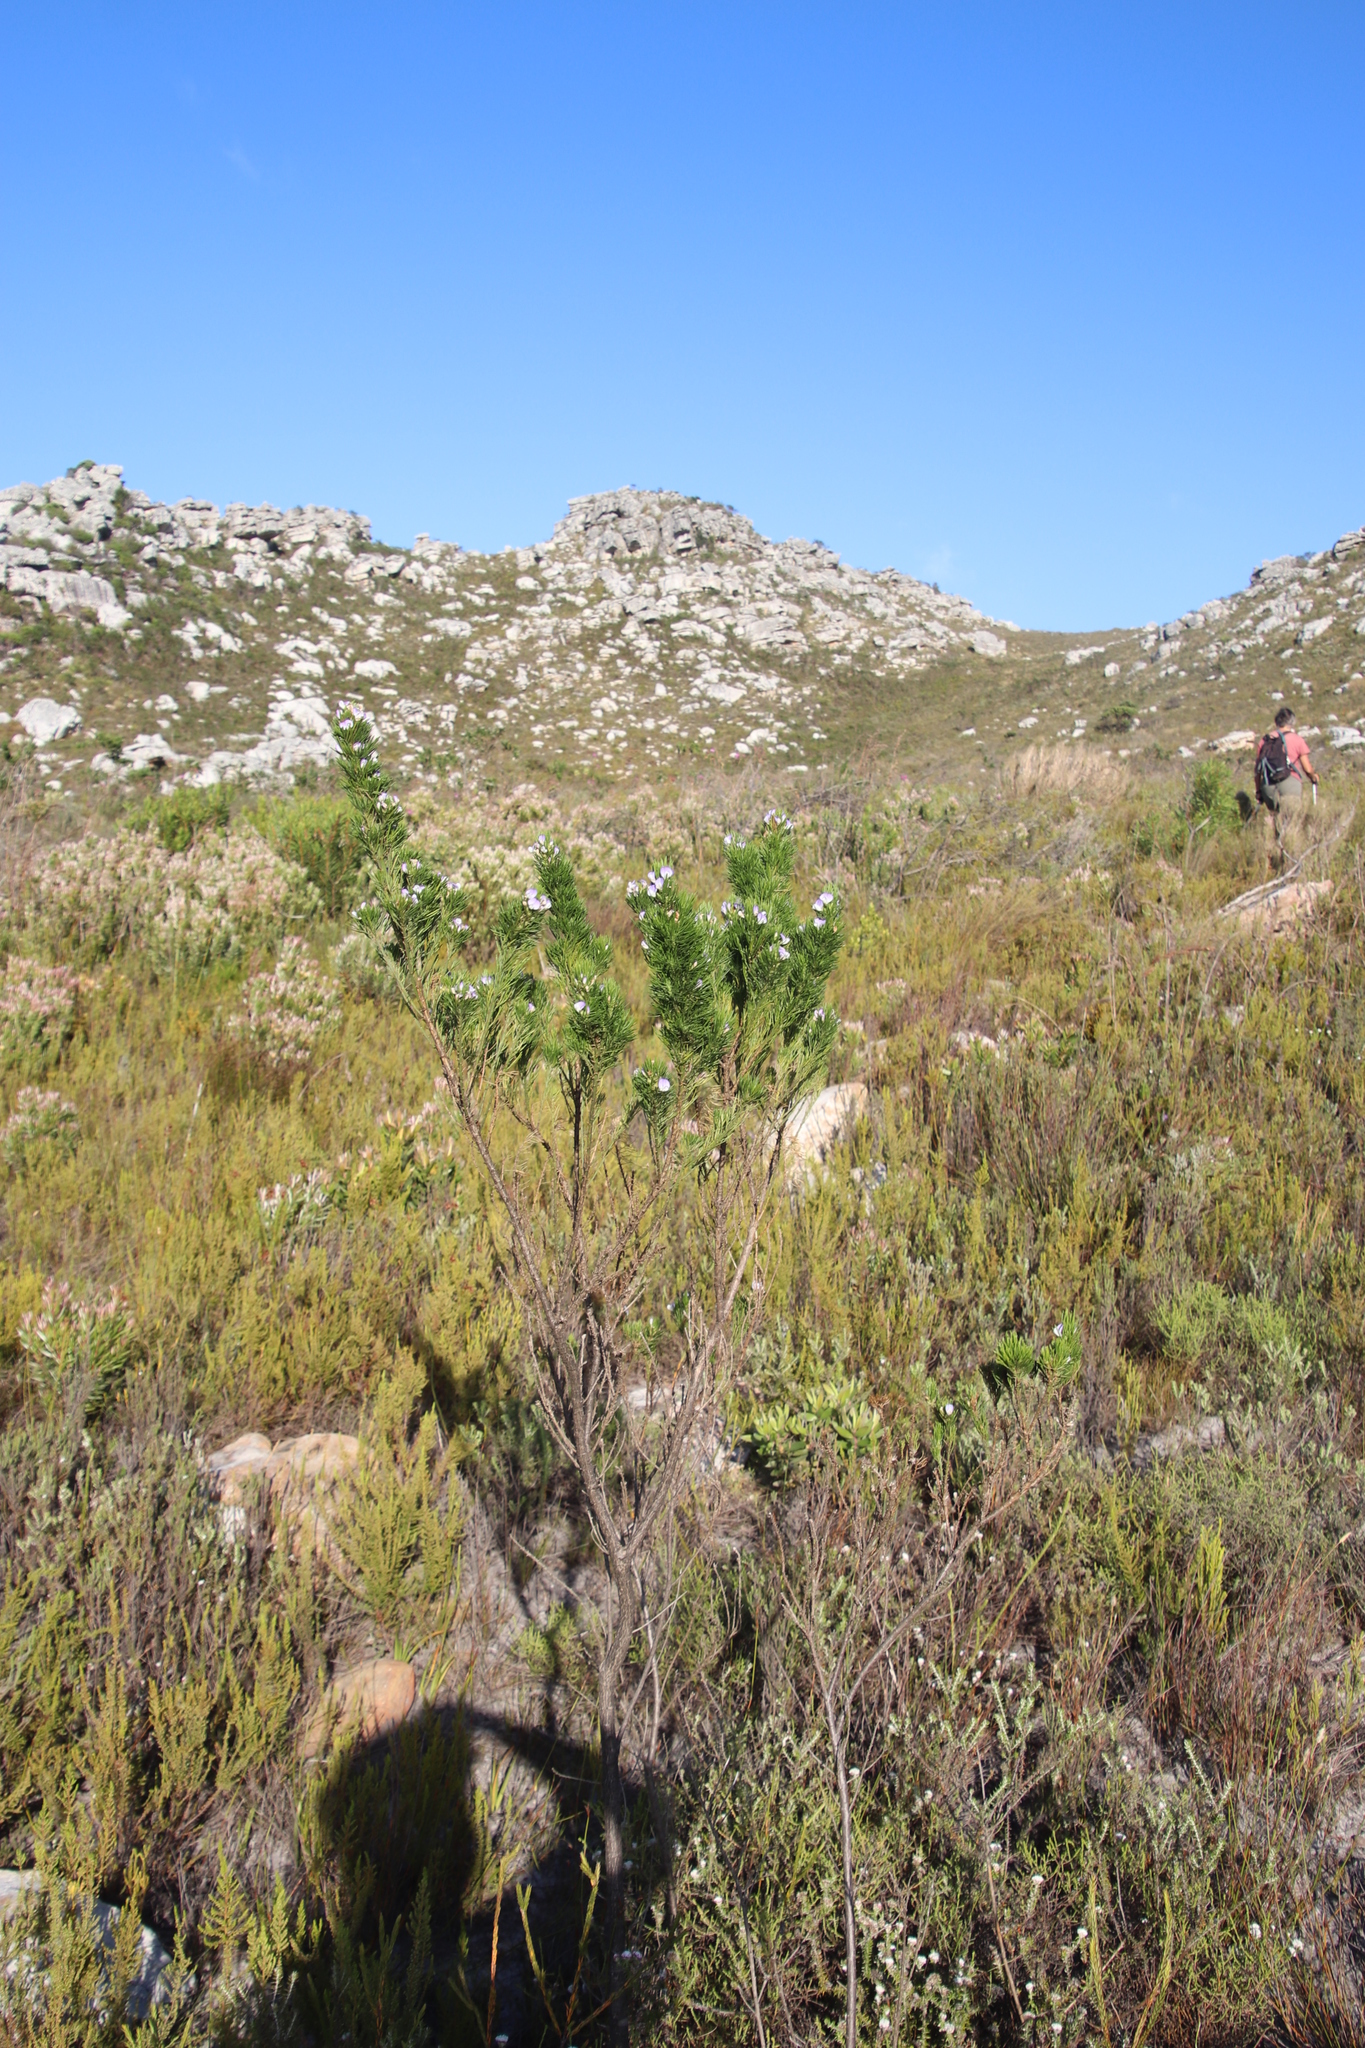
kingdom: Plantae
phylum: Tracheophyta
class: Magnoliopsida
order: Fabales
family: Fabaceae
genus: Psoralea
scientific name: Psoralea pinnata
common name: African scurfpea
